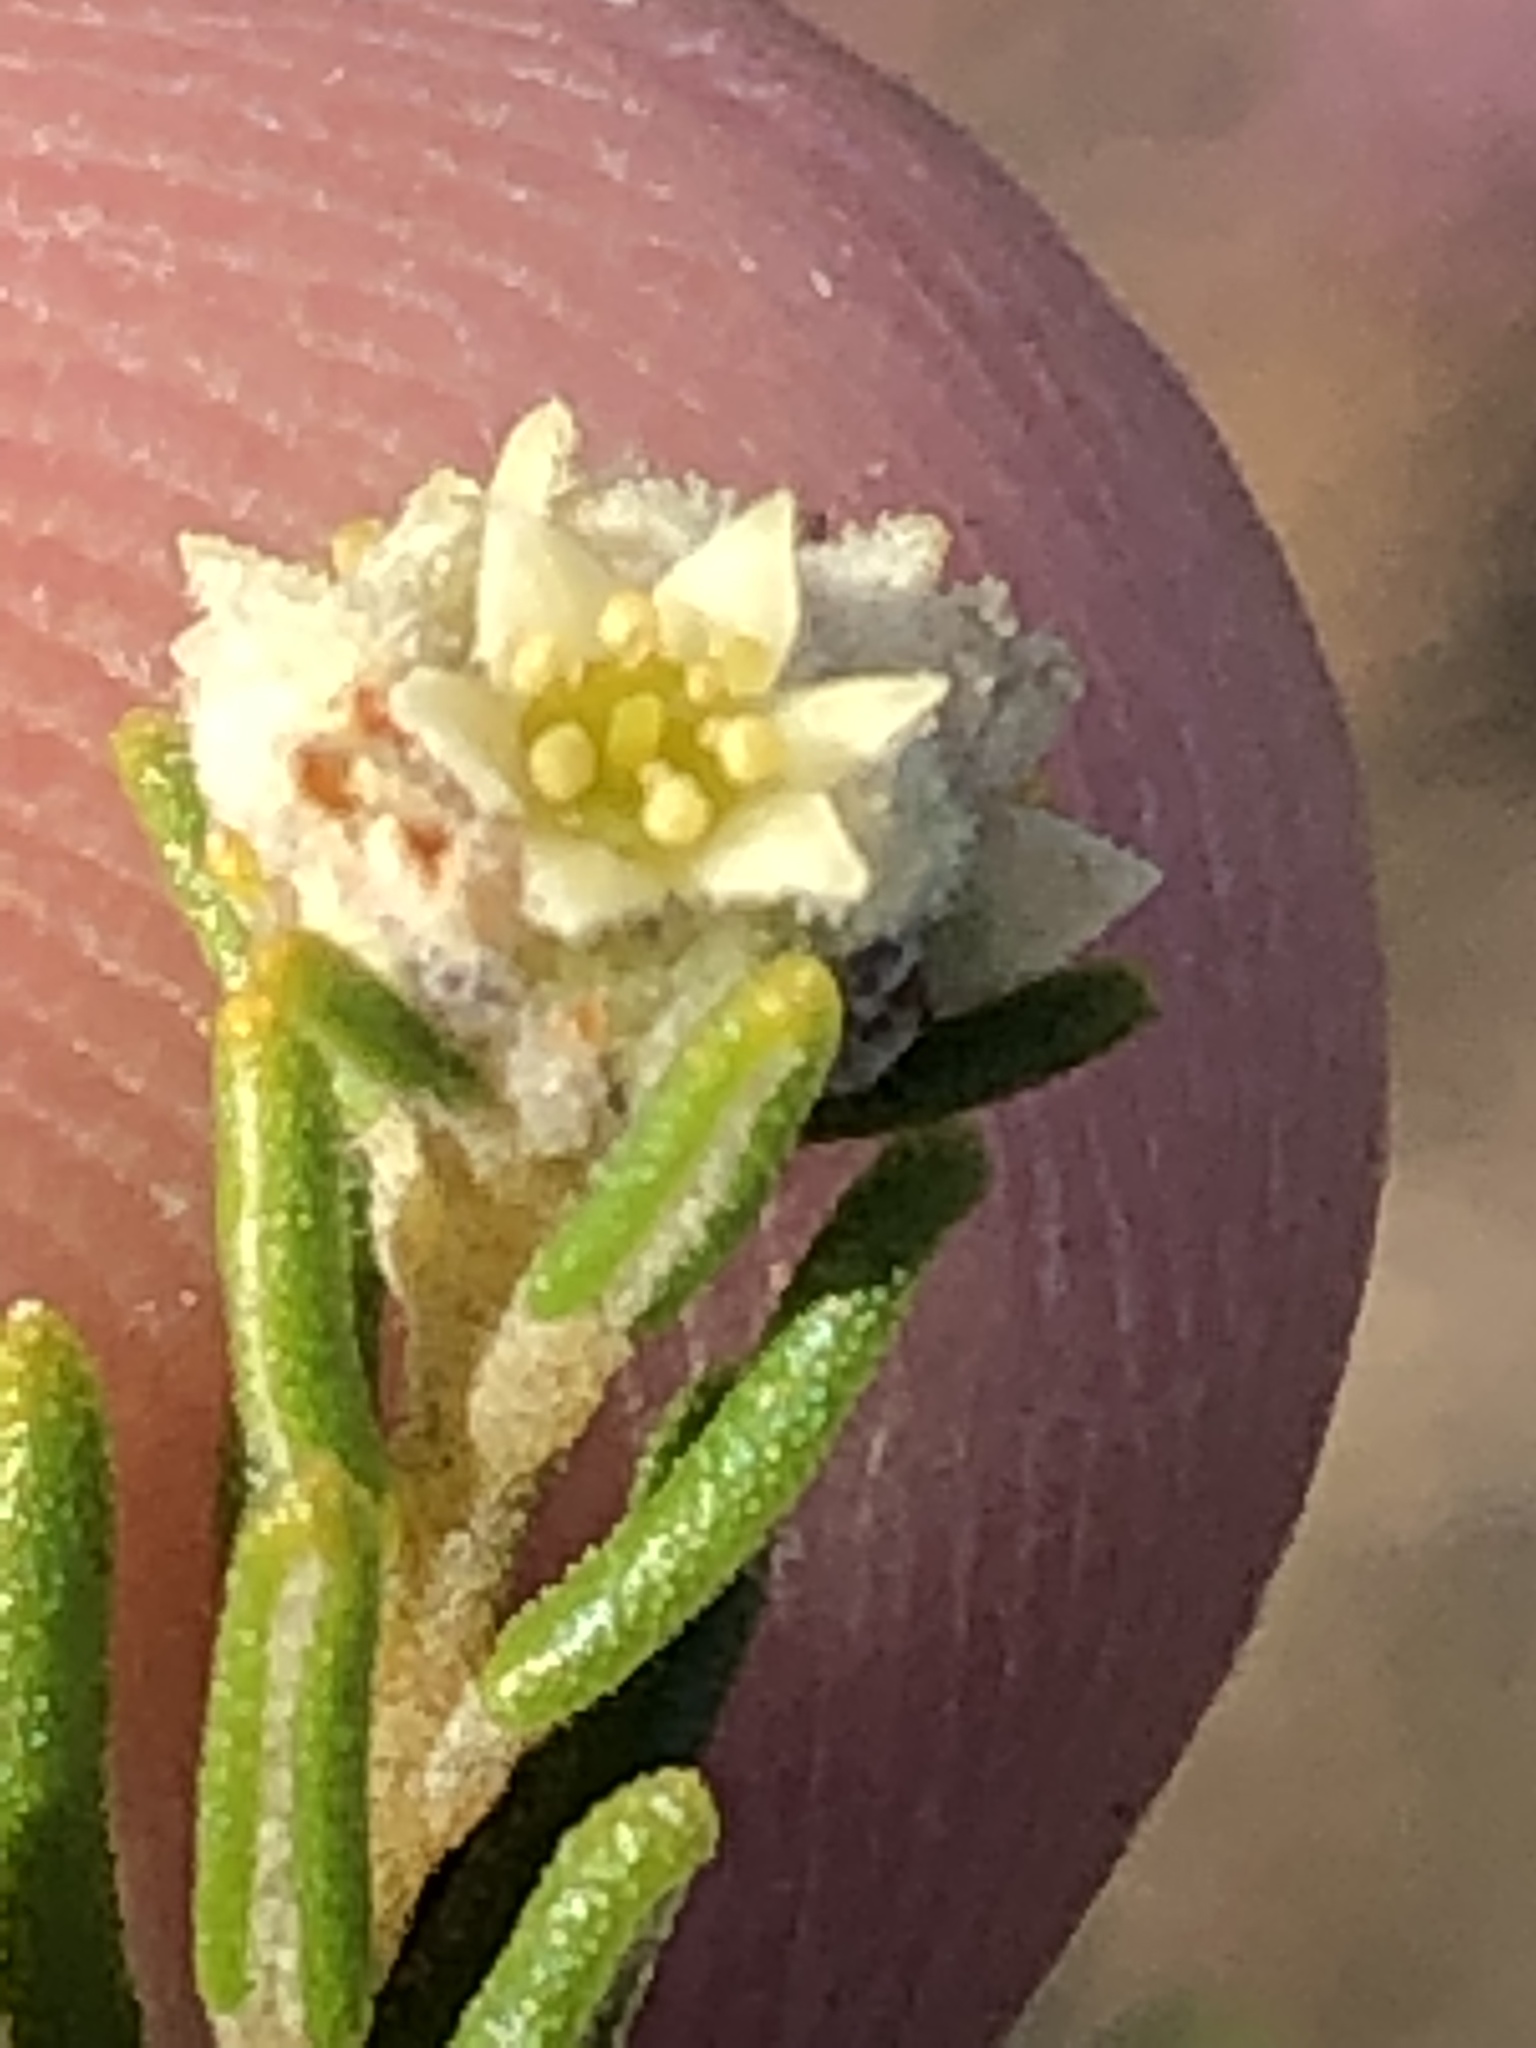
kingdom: Plantae
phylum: Tracheophyta
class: Magnoliopsida
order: Rosales
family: Rhamnaceae
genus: Phylica
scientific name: Phylica cephalantha
